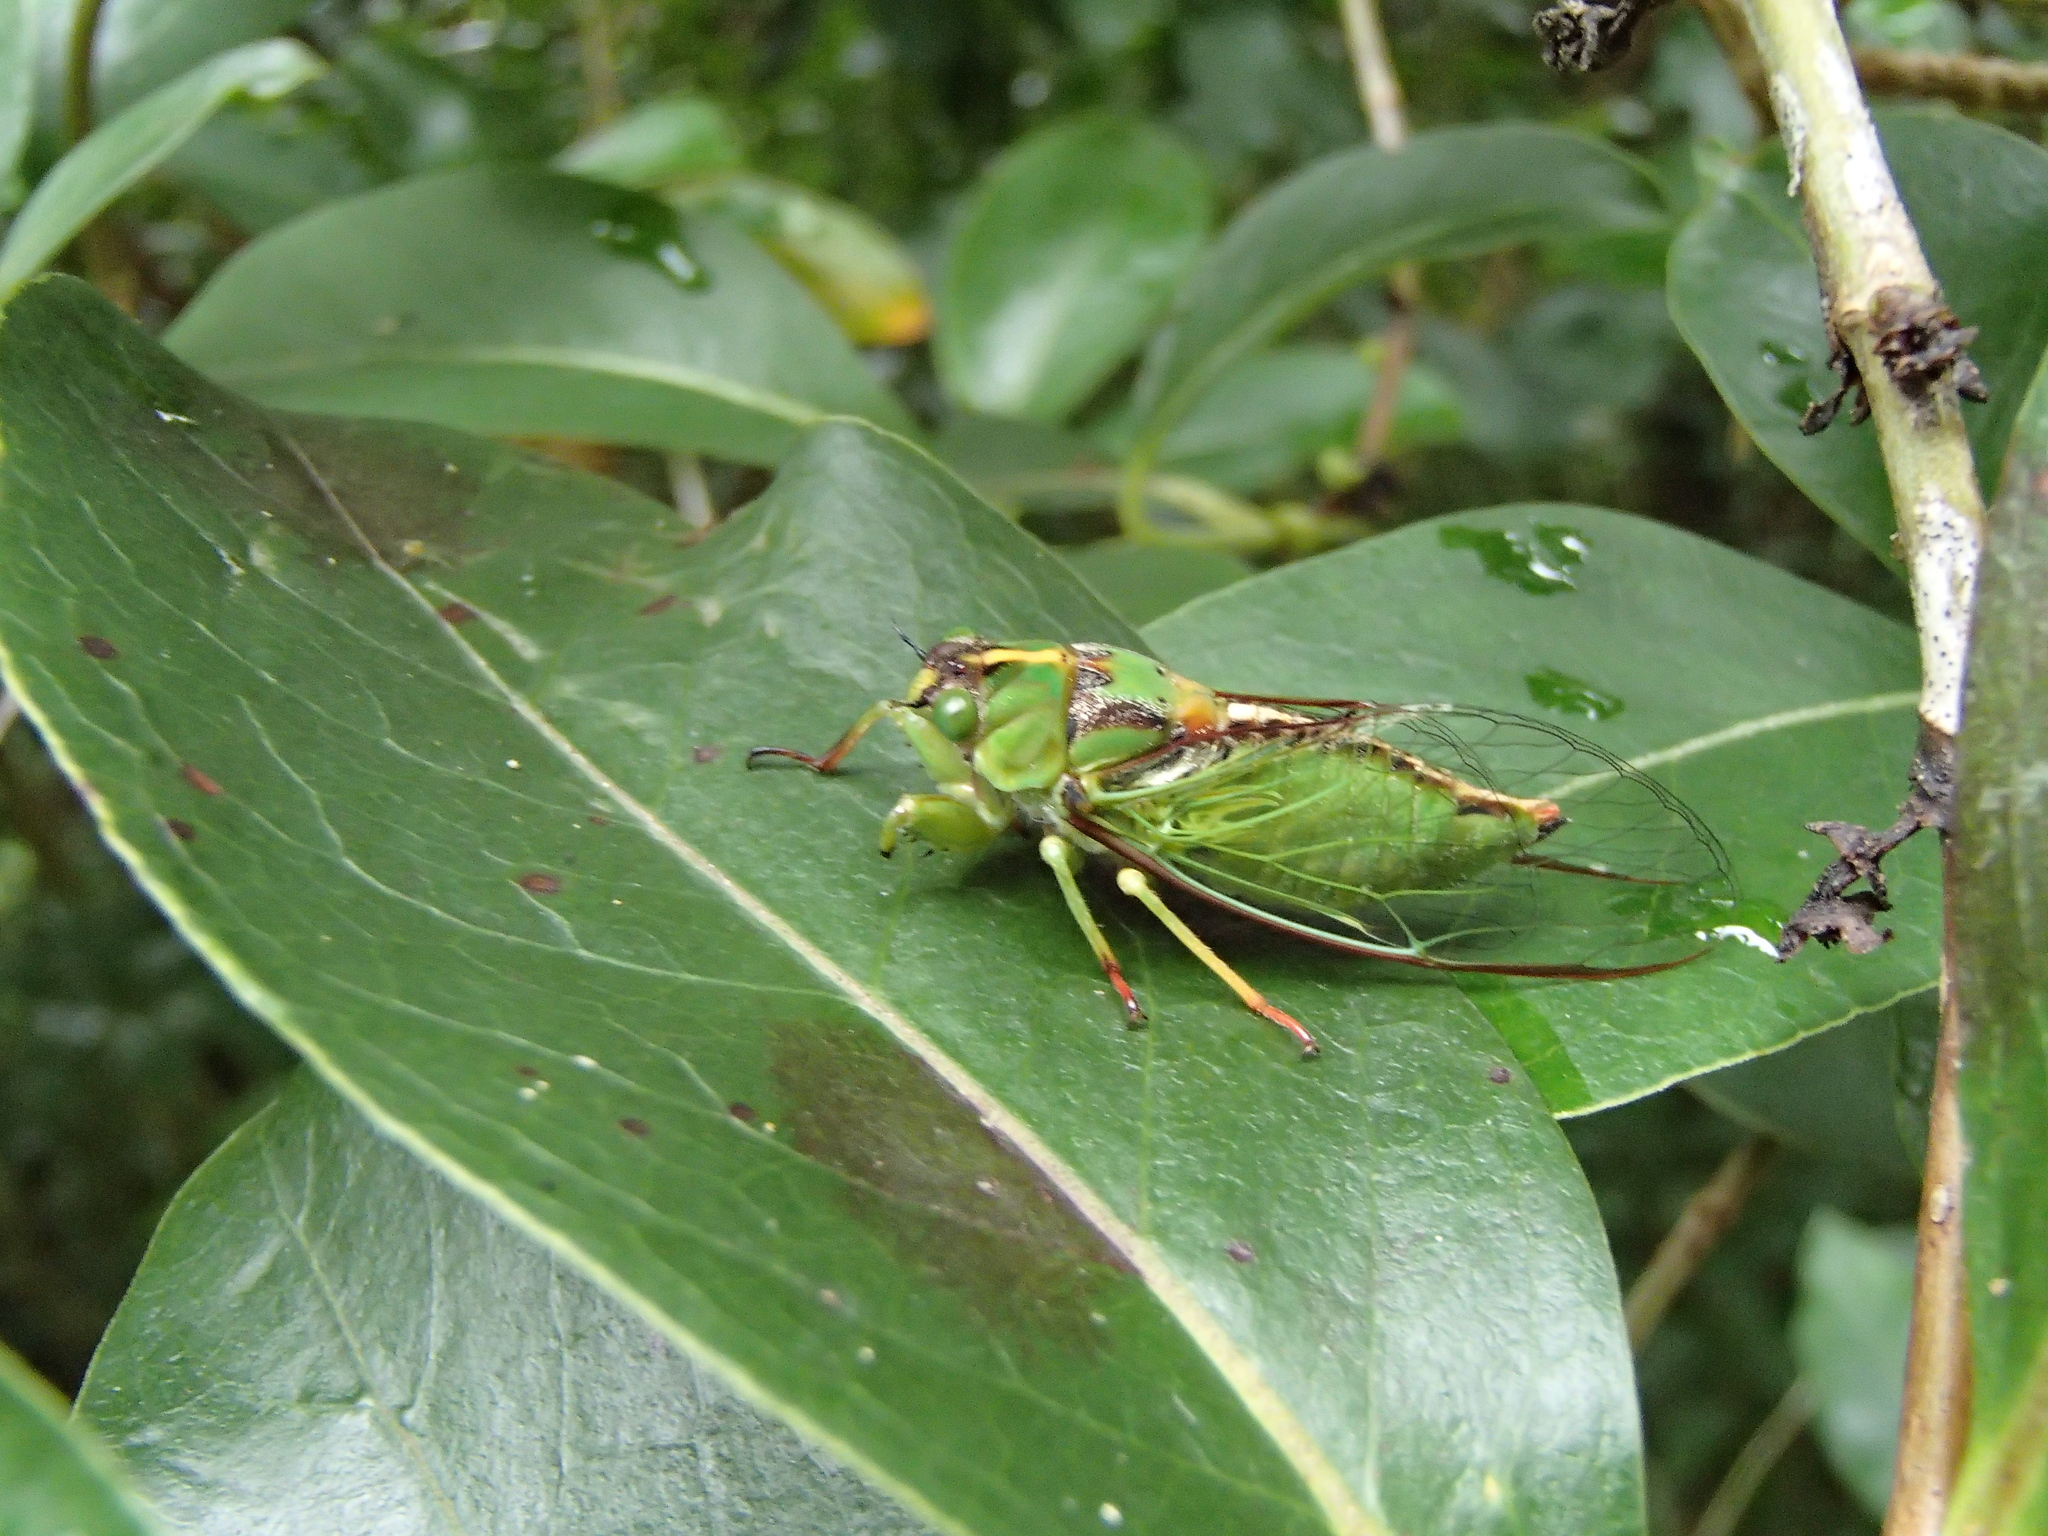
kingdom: Animalia
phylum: Arthropoda
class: Insecta
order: Hemiptera
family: Cicadidae
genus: Kikihia
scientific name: Kikihia subalpina
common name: Chathams cicada
